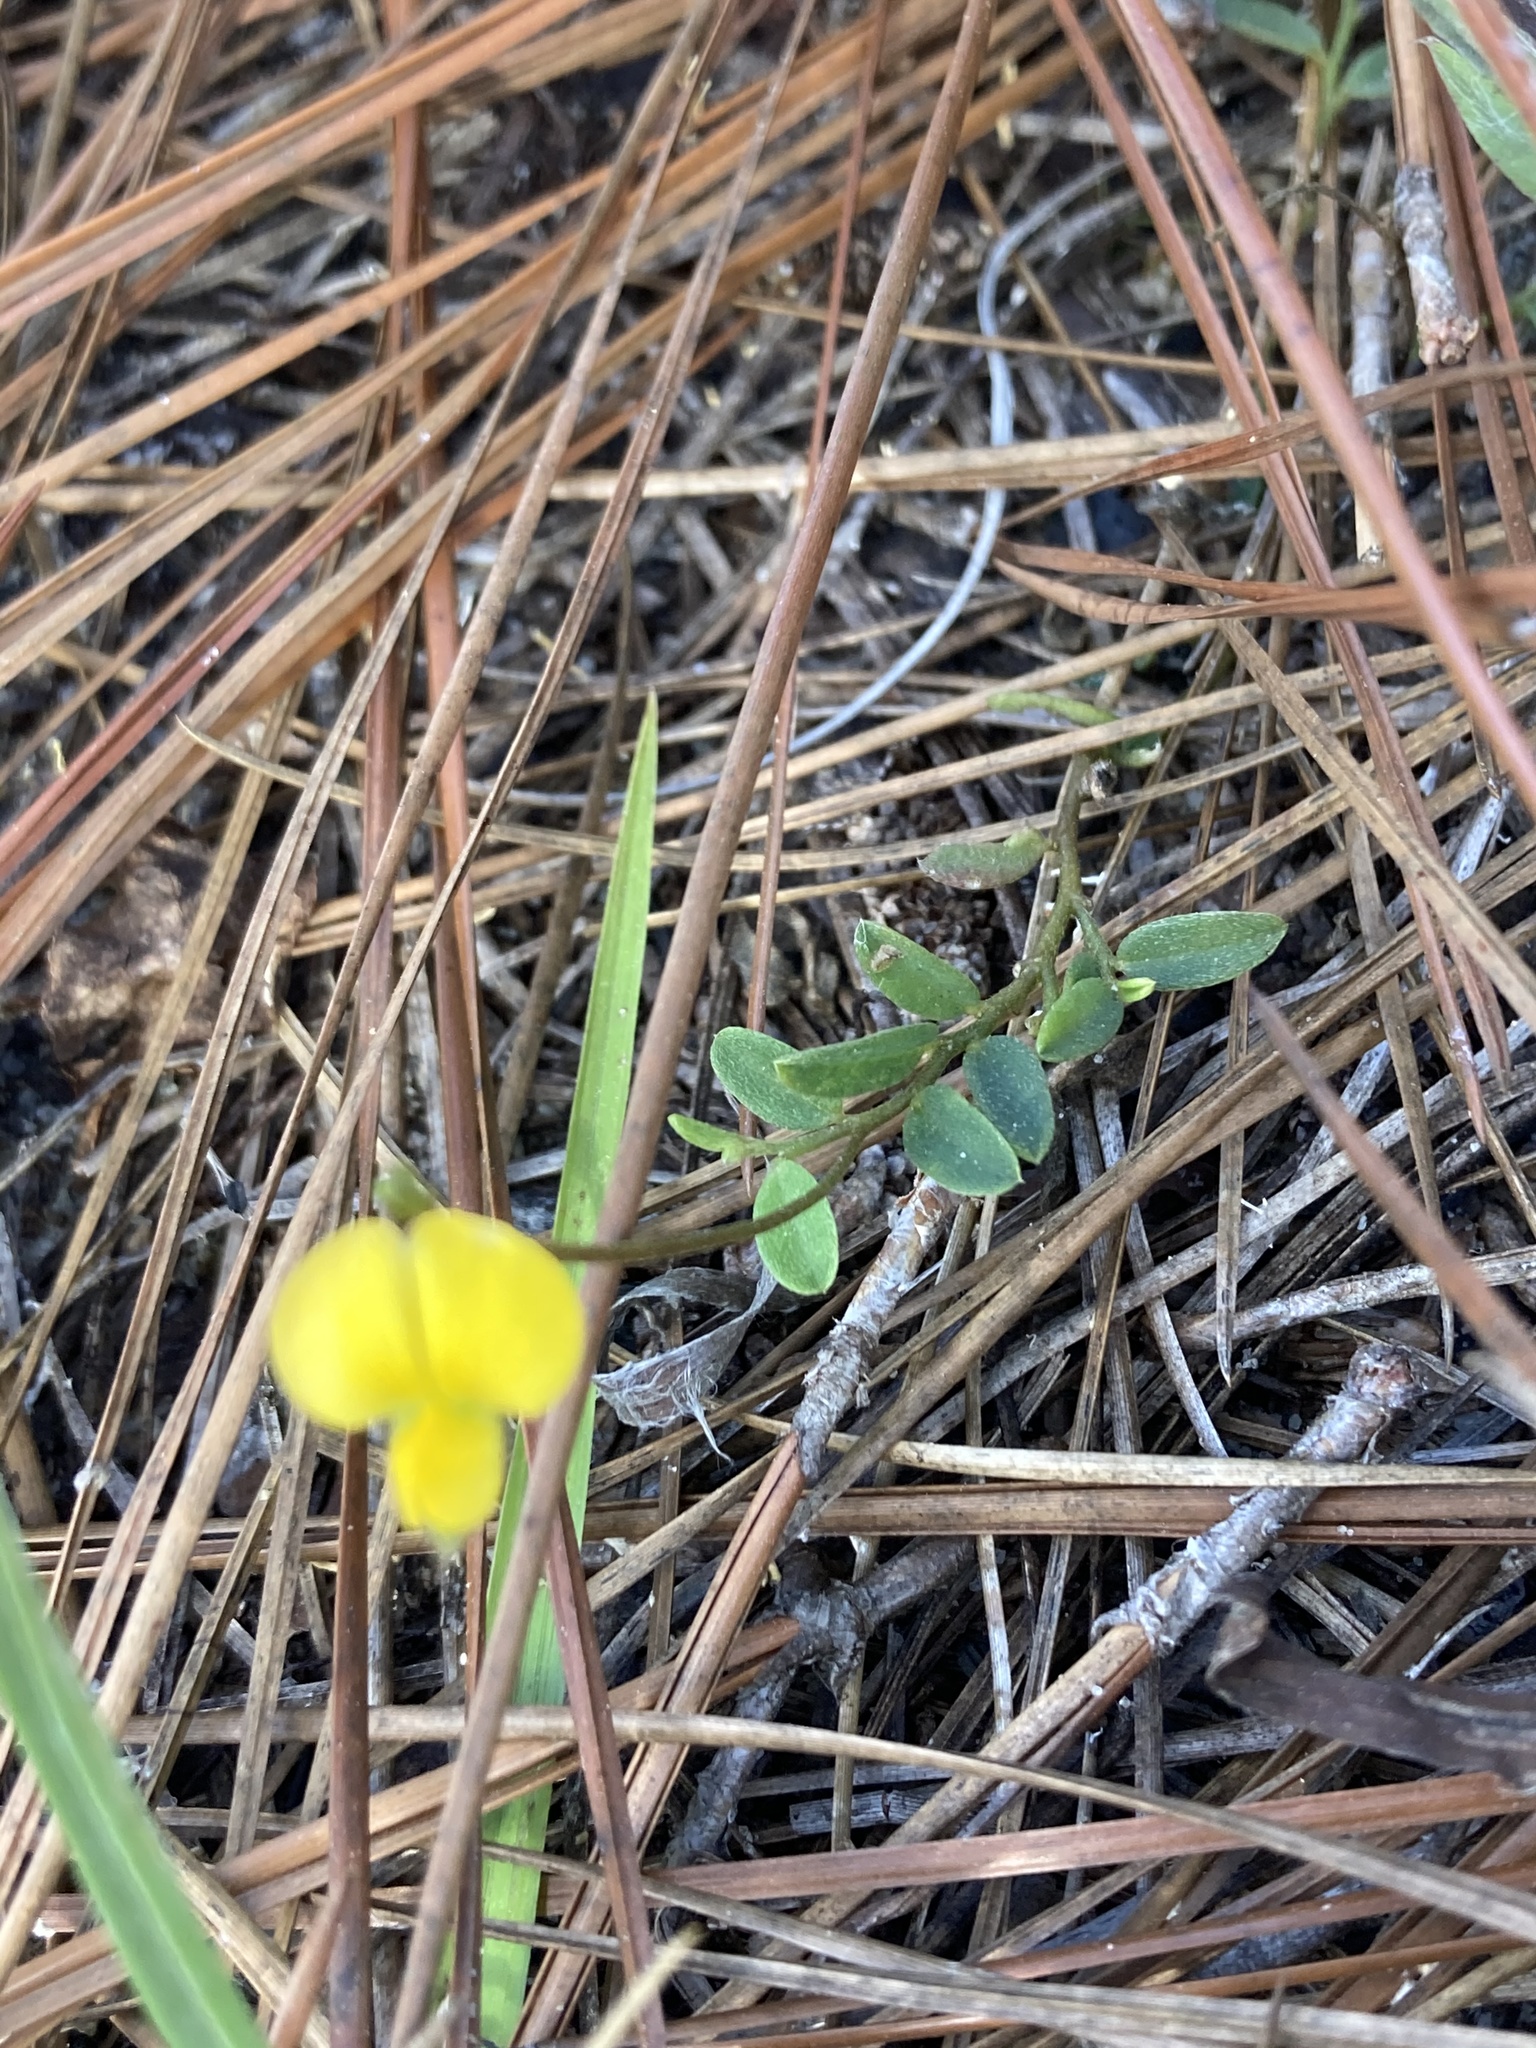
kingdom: Plantae
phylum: Tracheophyta
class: Magnoliopsida
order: Fabales
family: Fabaceae
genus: Crotalaria
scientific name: Crotalaria rotundifolia
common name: Prostrate rattlebox
